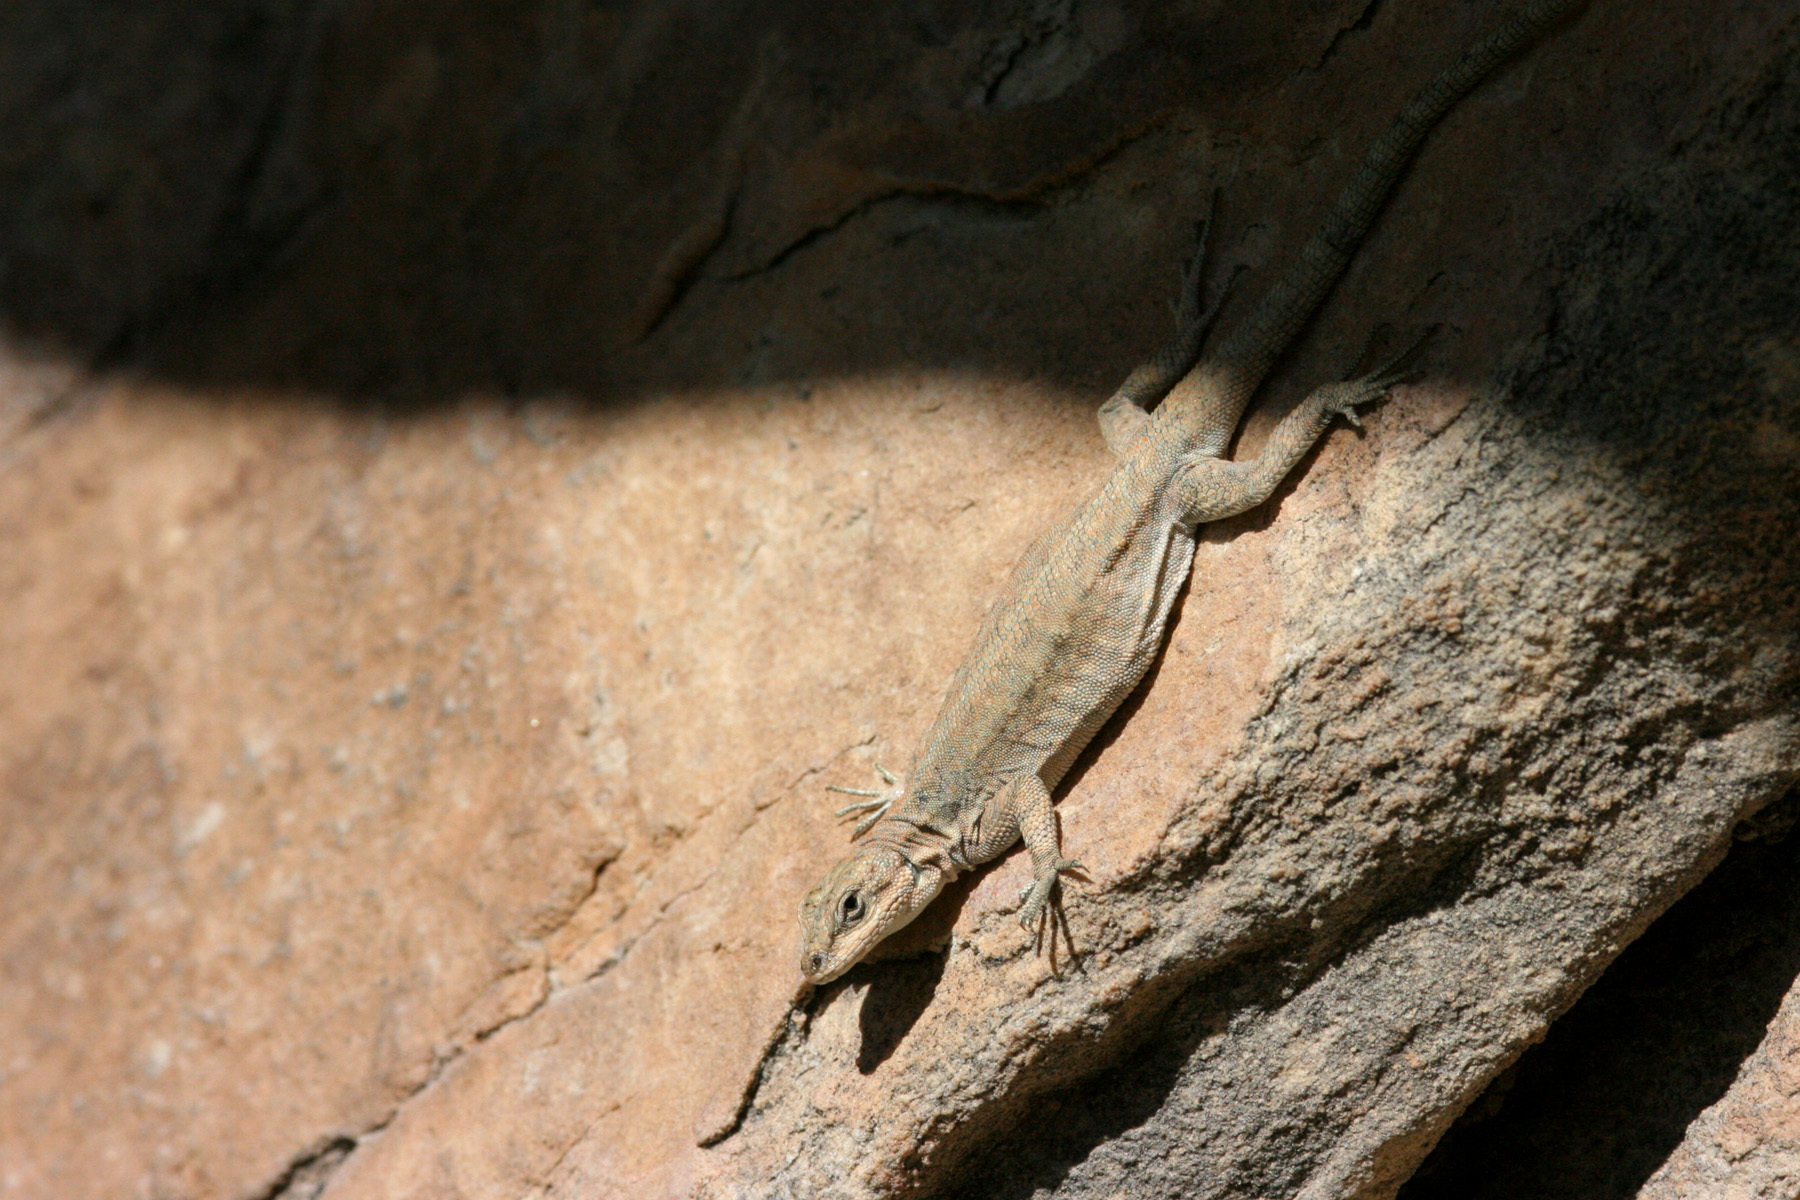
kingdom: Animalia
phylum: Chordata
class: Squamata
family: Phrynosomatidae
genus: Urosaurus
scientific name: Urosaurus ornatus
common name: Ornate tree lizard
